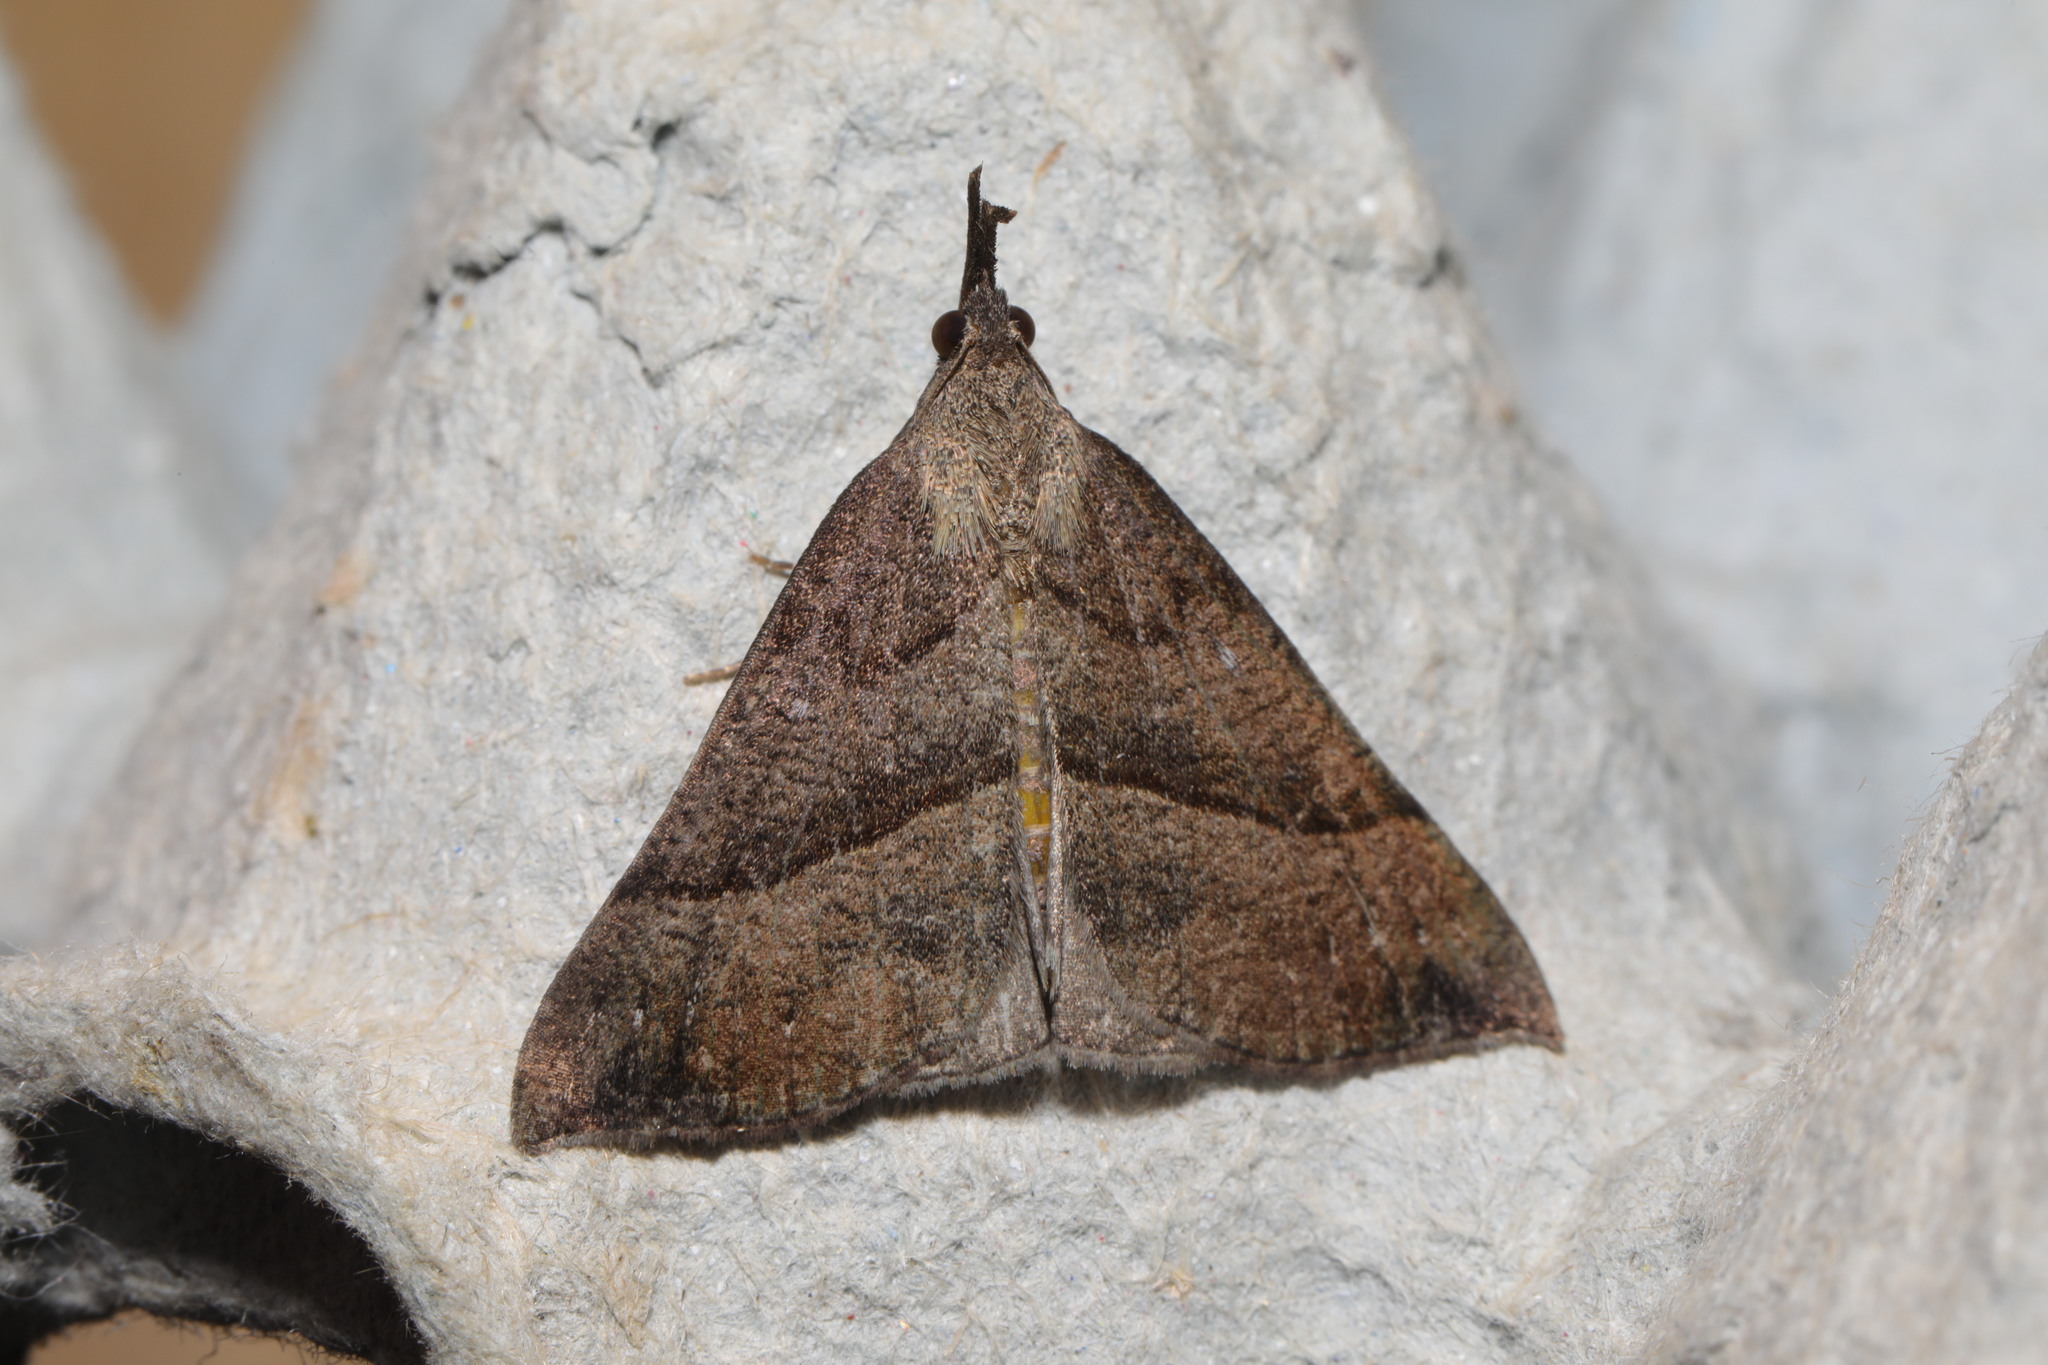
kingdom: Animalia
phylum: Arthropoda
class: Insecta
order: Lepidoptera
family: Erebidae
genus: Hypena
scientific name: Hypena proboscidalis
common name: Snout
